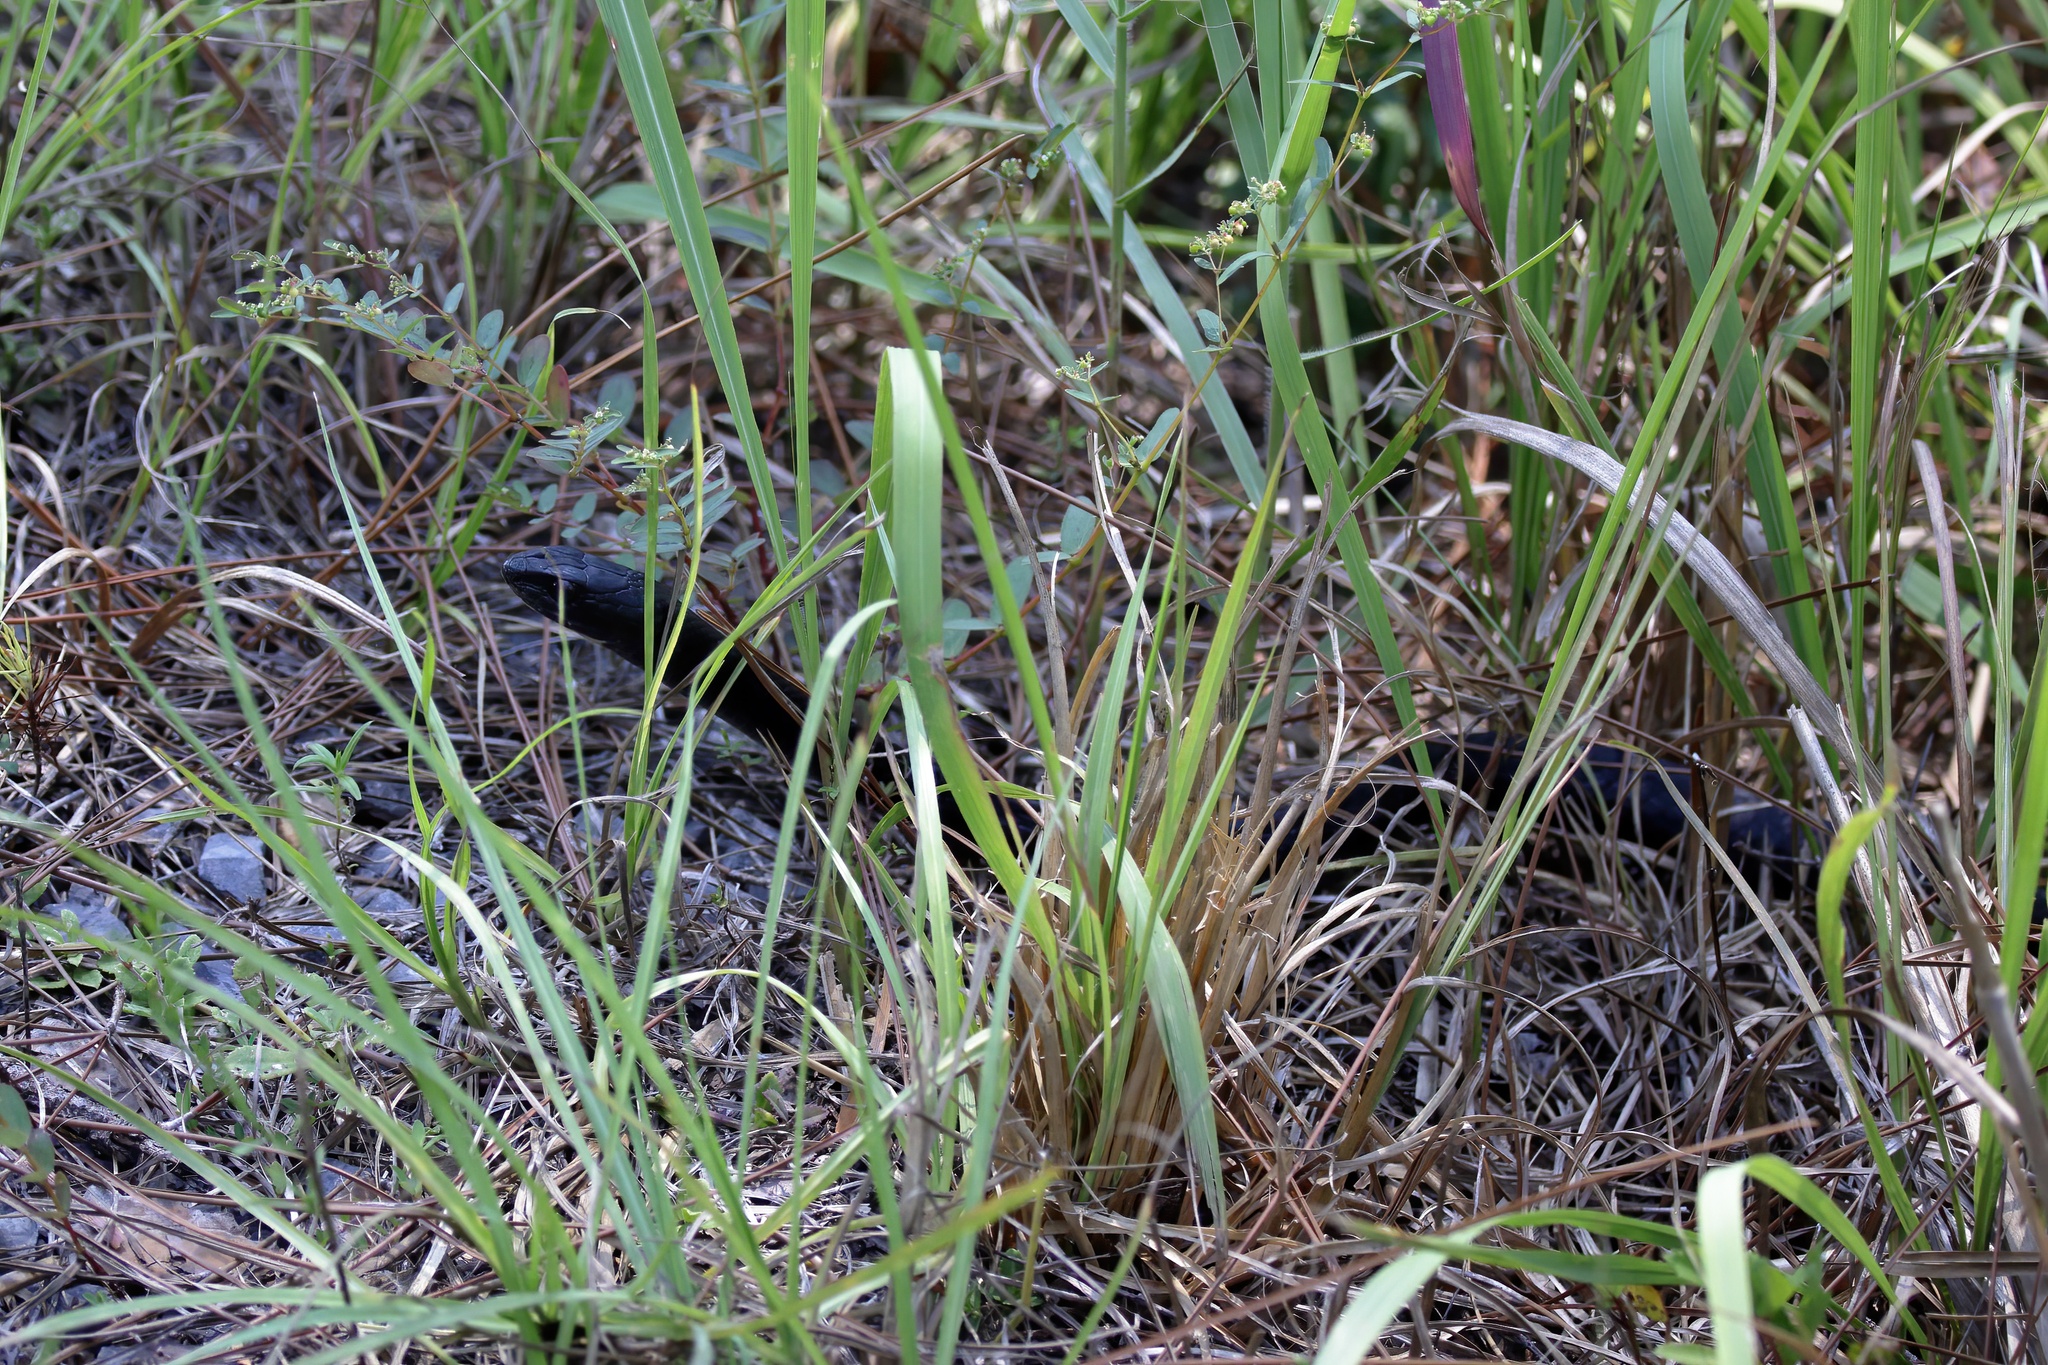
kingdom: Animalia
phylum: Chordata
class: Squamata
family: Colubridae
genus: Coluber
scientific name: Coluber constrictor
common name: Eastern racer
